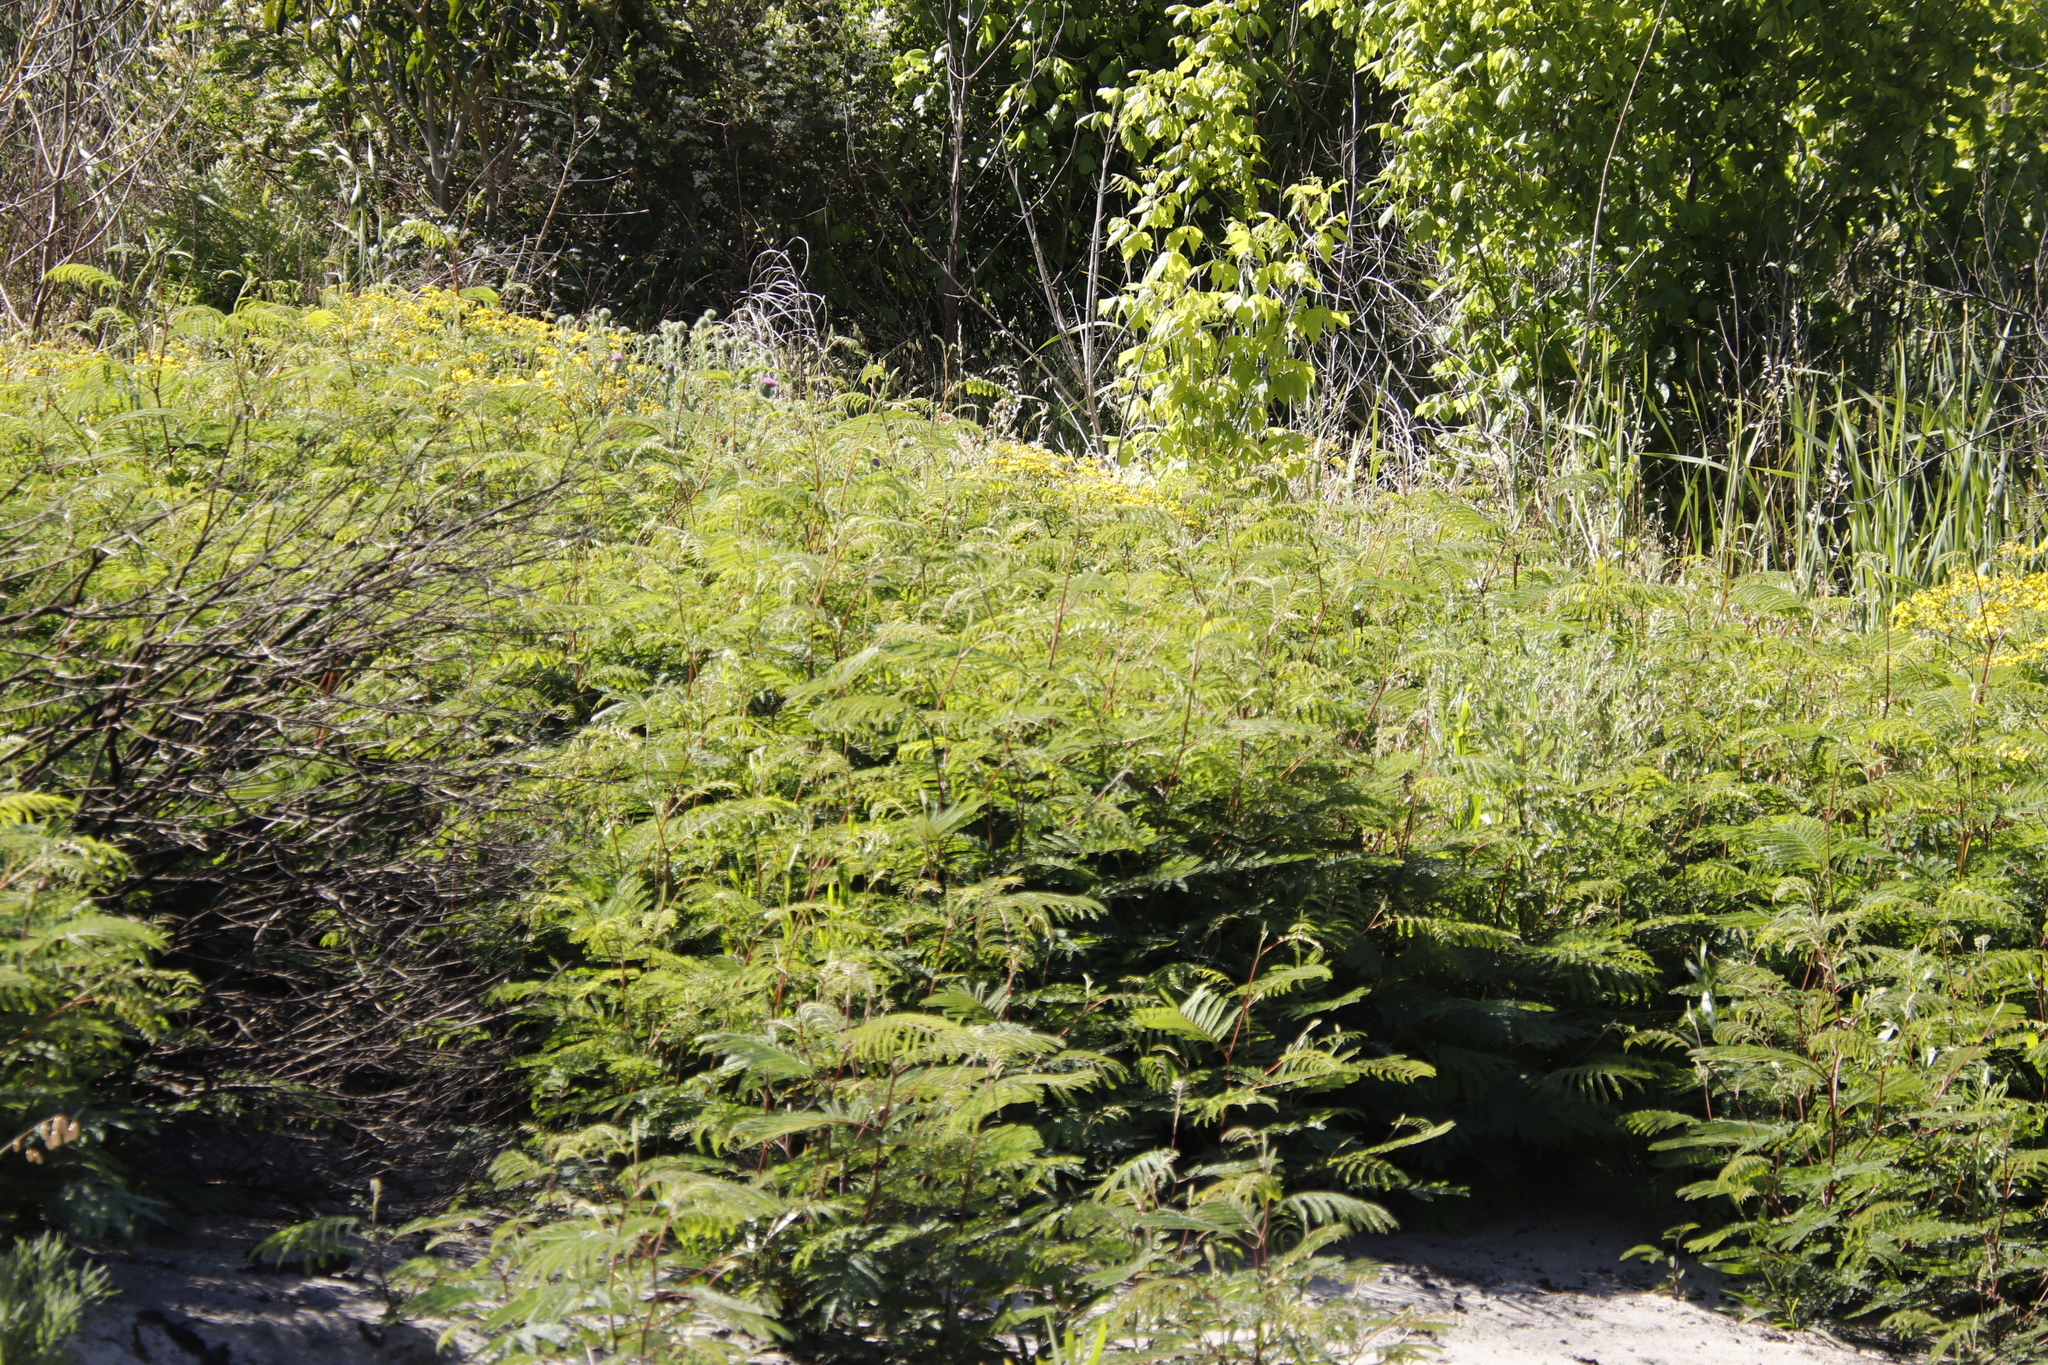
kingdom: Plantae
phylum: Tracheophyta
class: Magnoliopsida
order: Fabales
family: Fabaceae
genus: Paraserianthes
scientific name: Paraserianthes lophantha
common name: Plume albizia
